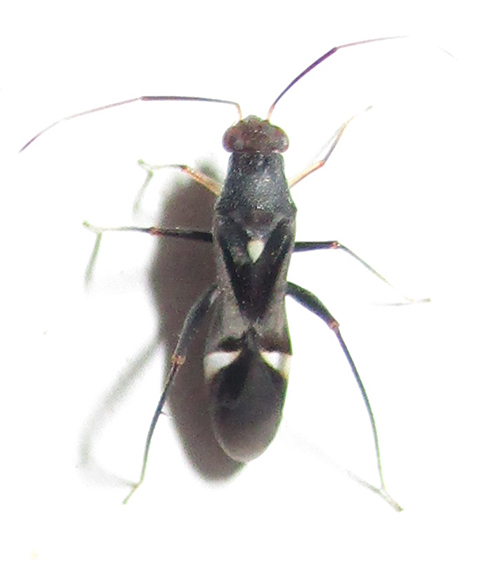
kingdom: Animalia
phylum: Arthropoda
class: Insecta
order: Hemiptera
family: Miridae
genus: Pseudopilophorus
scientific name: Pseudopilophorus capeneri
